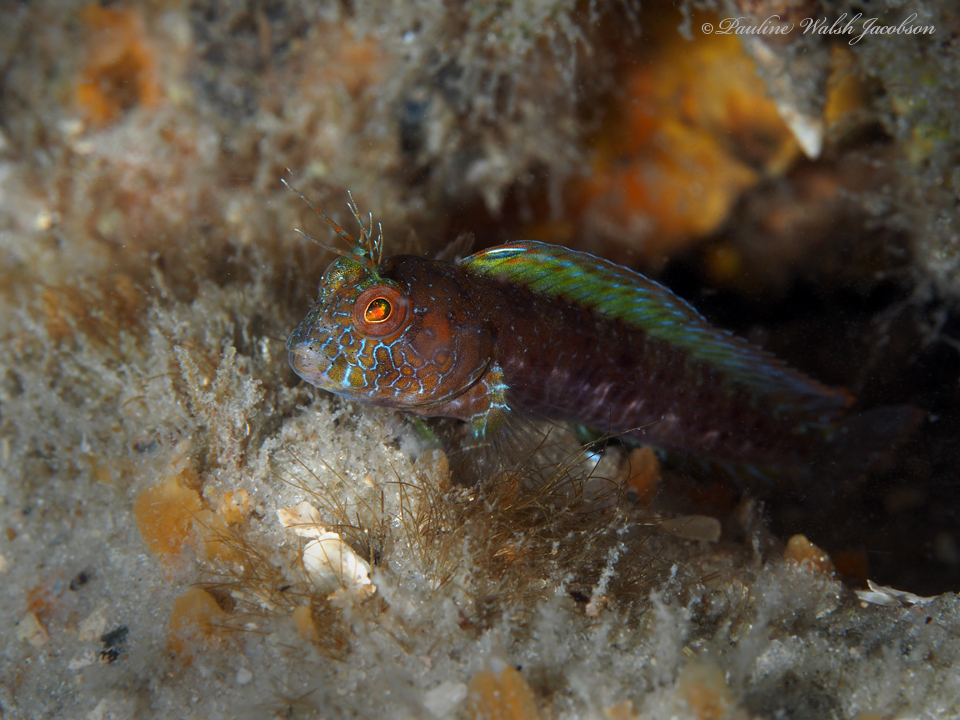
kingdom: Animalia
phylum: Chordata
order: Perciformes
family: Blenniidae
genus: Parablennius
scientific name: Parablennius marmoreus
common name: Seaweed blenny
